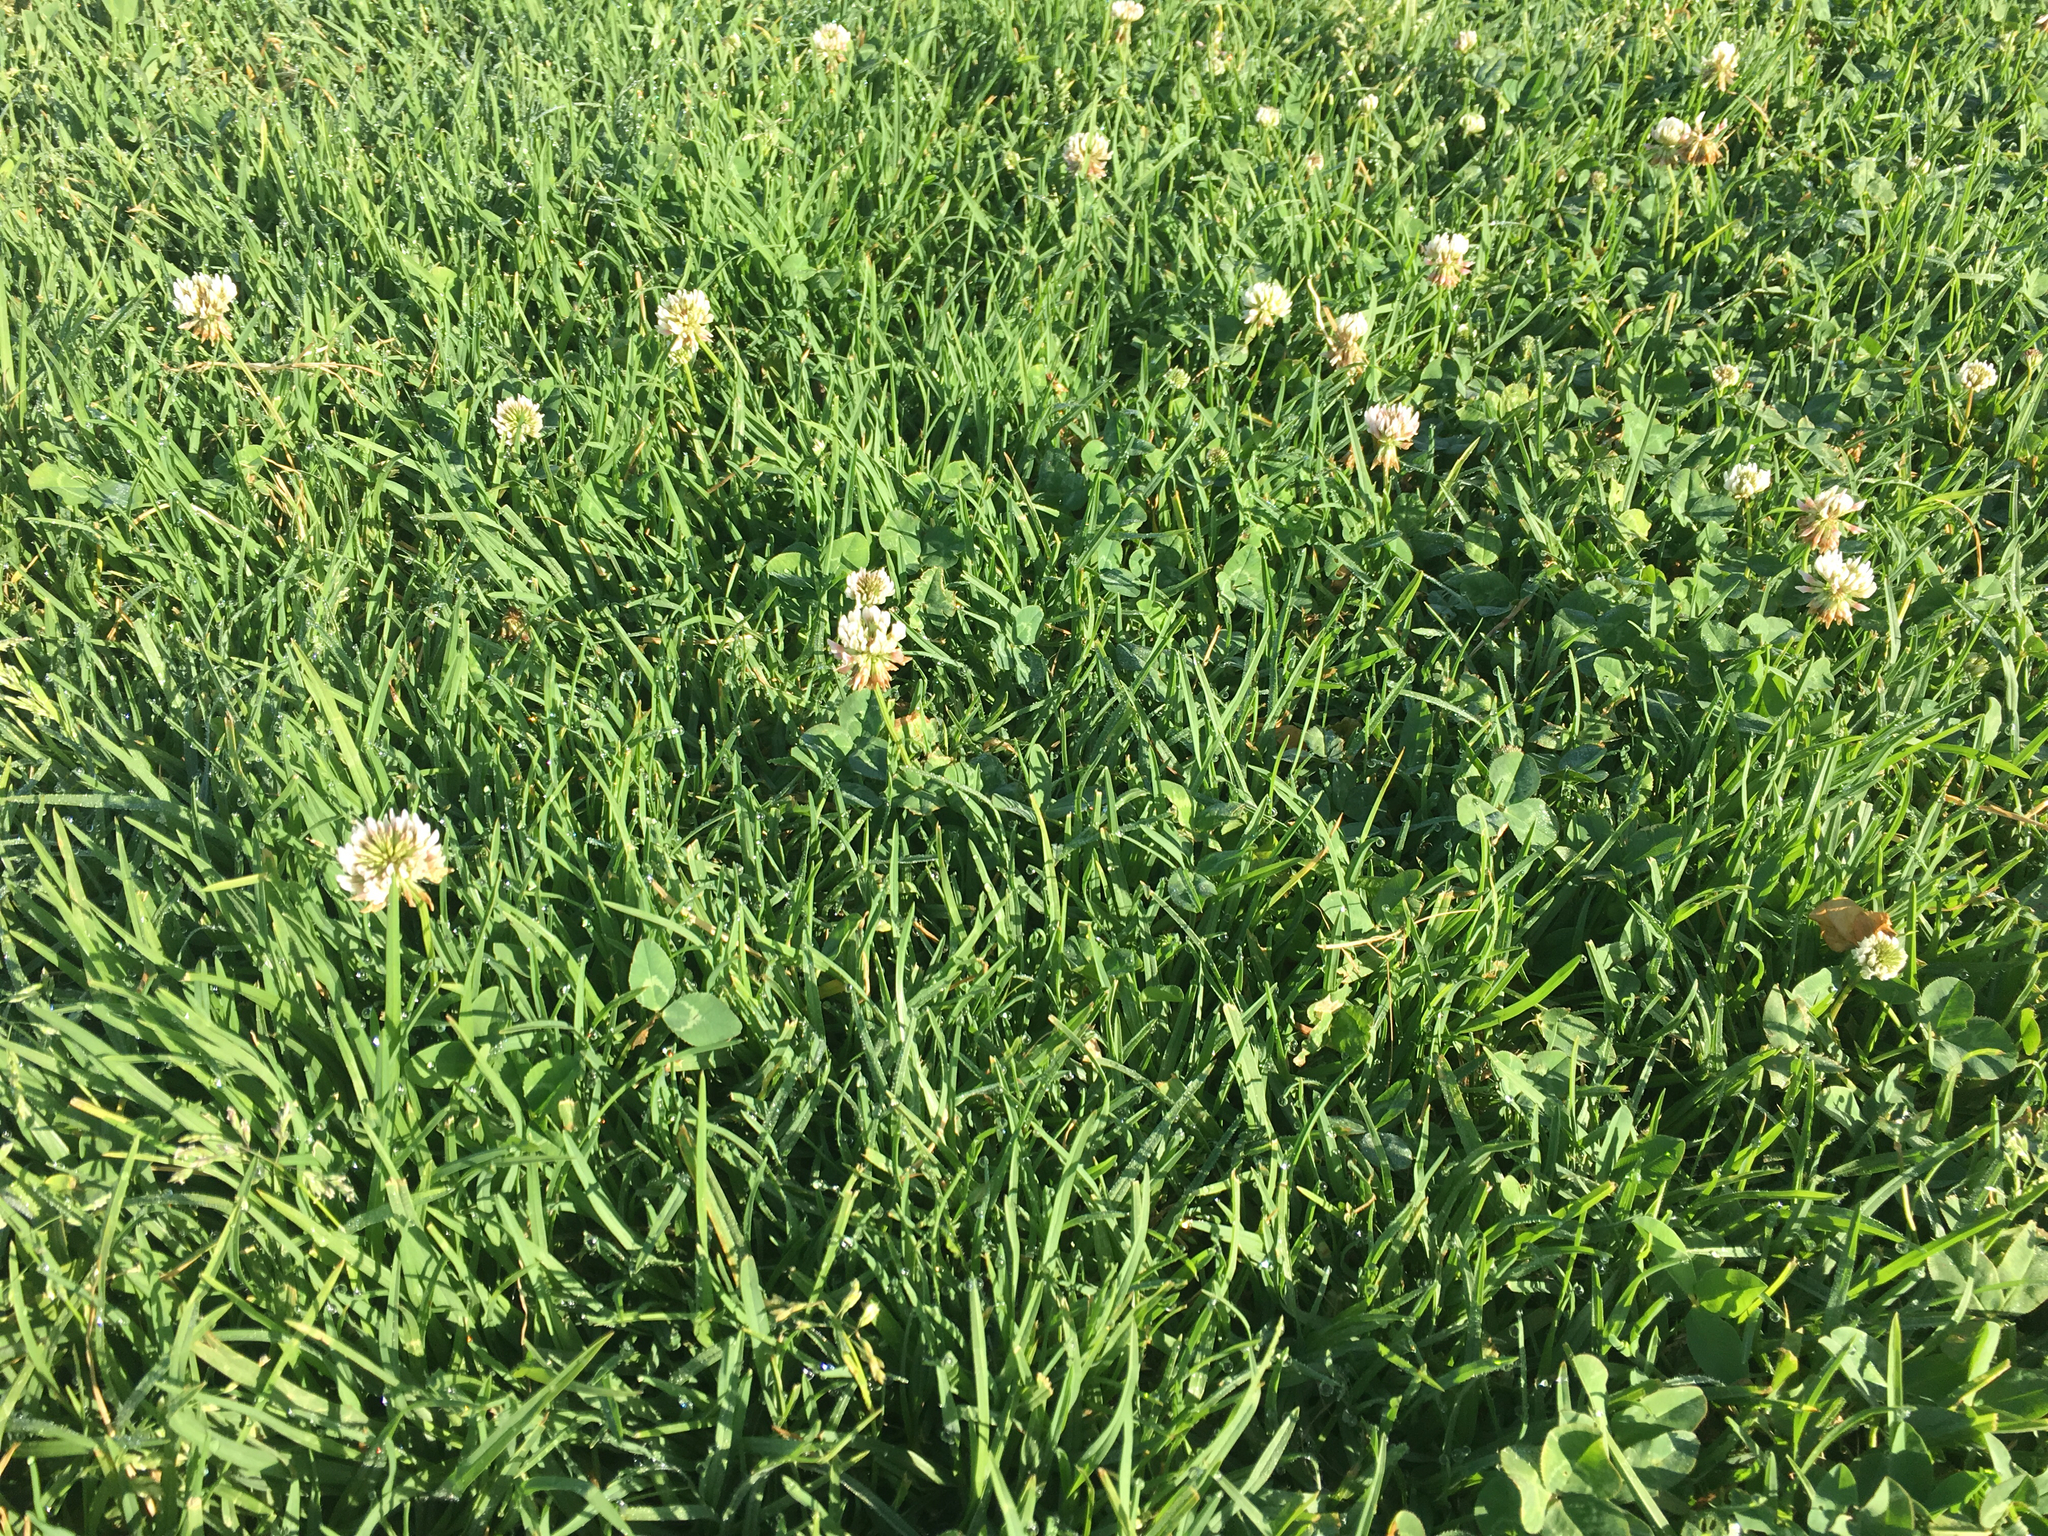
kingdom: Plantae
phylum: Tracheophyta
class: Magnoliopsida
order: Fabales
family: Fabaceae
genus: Trifolium
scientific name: Trifolium repens
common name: White clover
